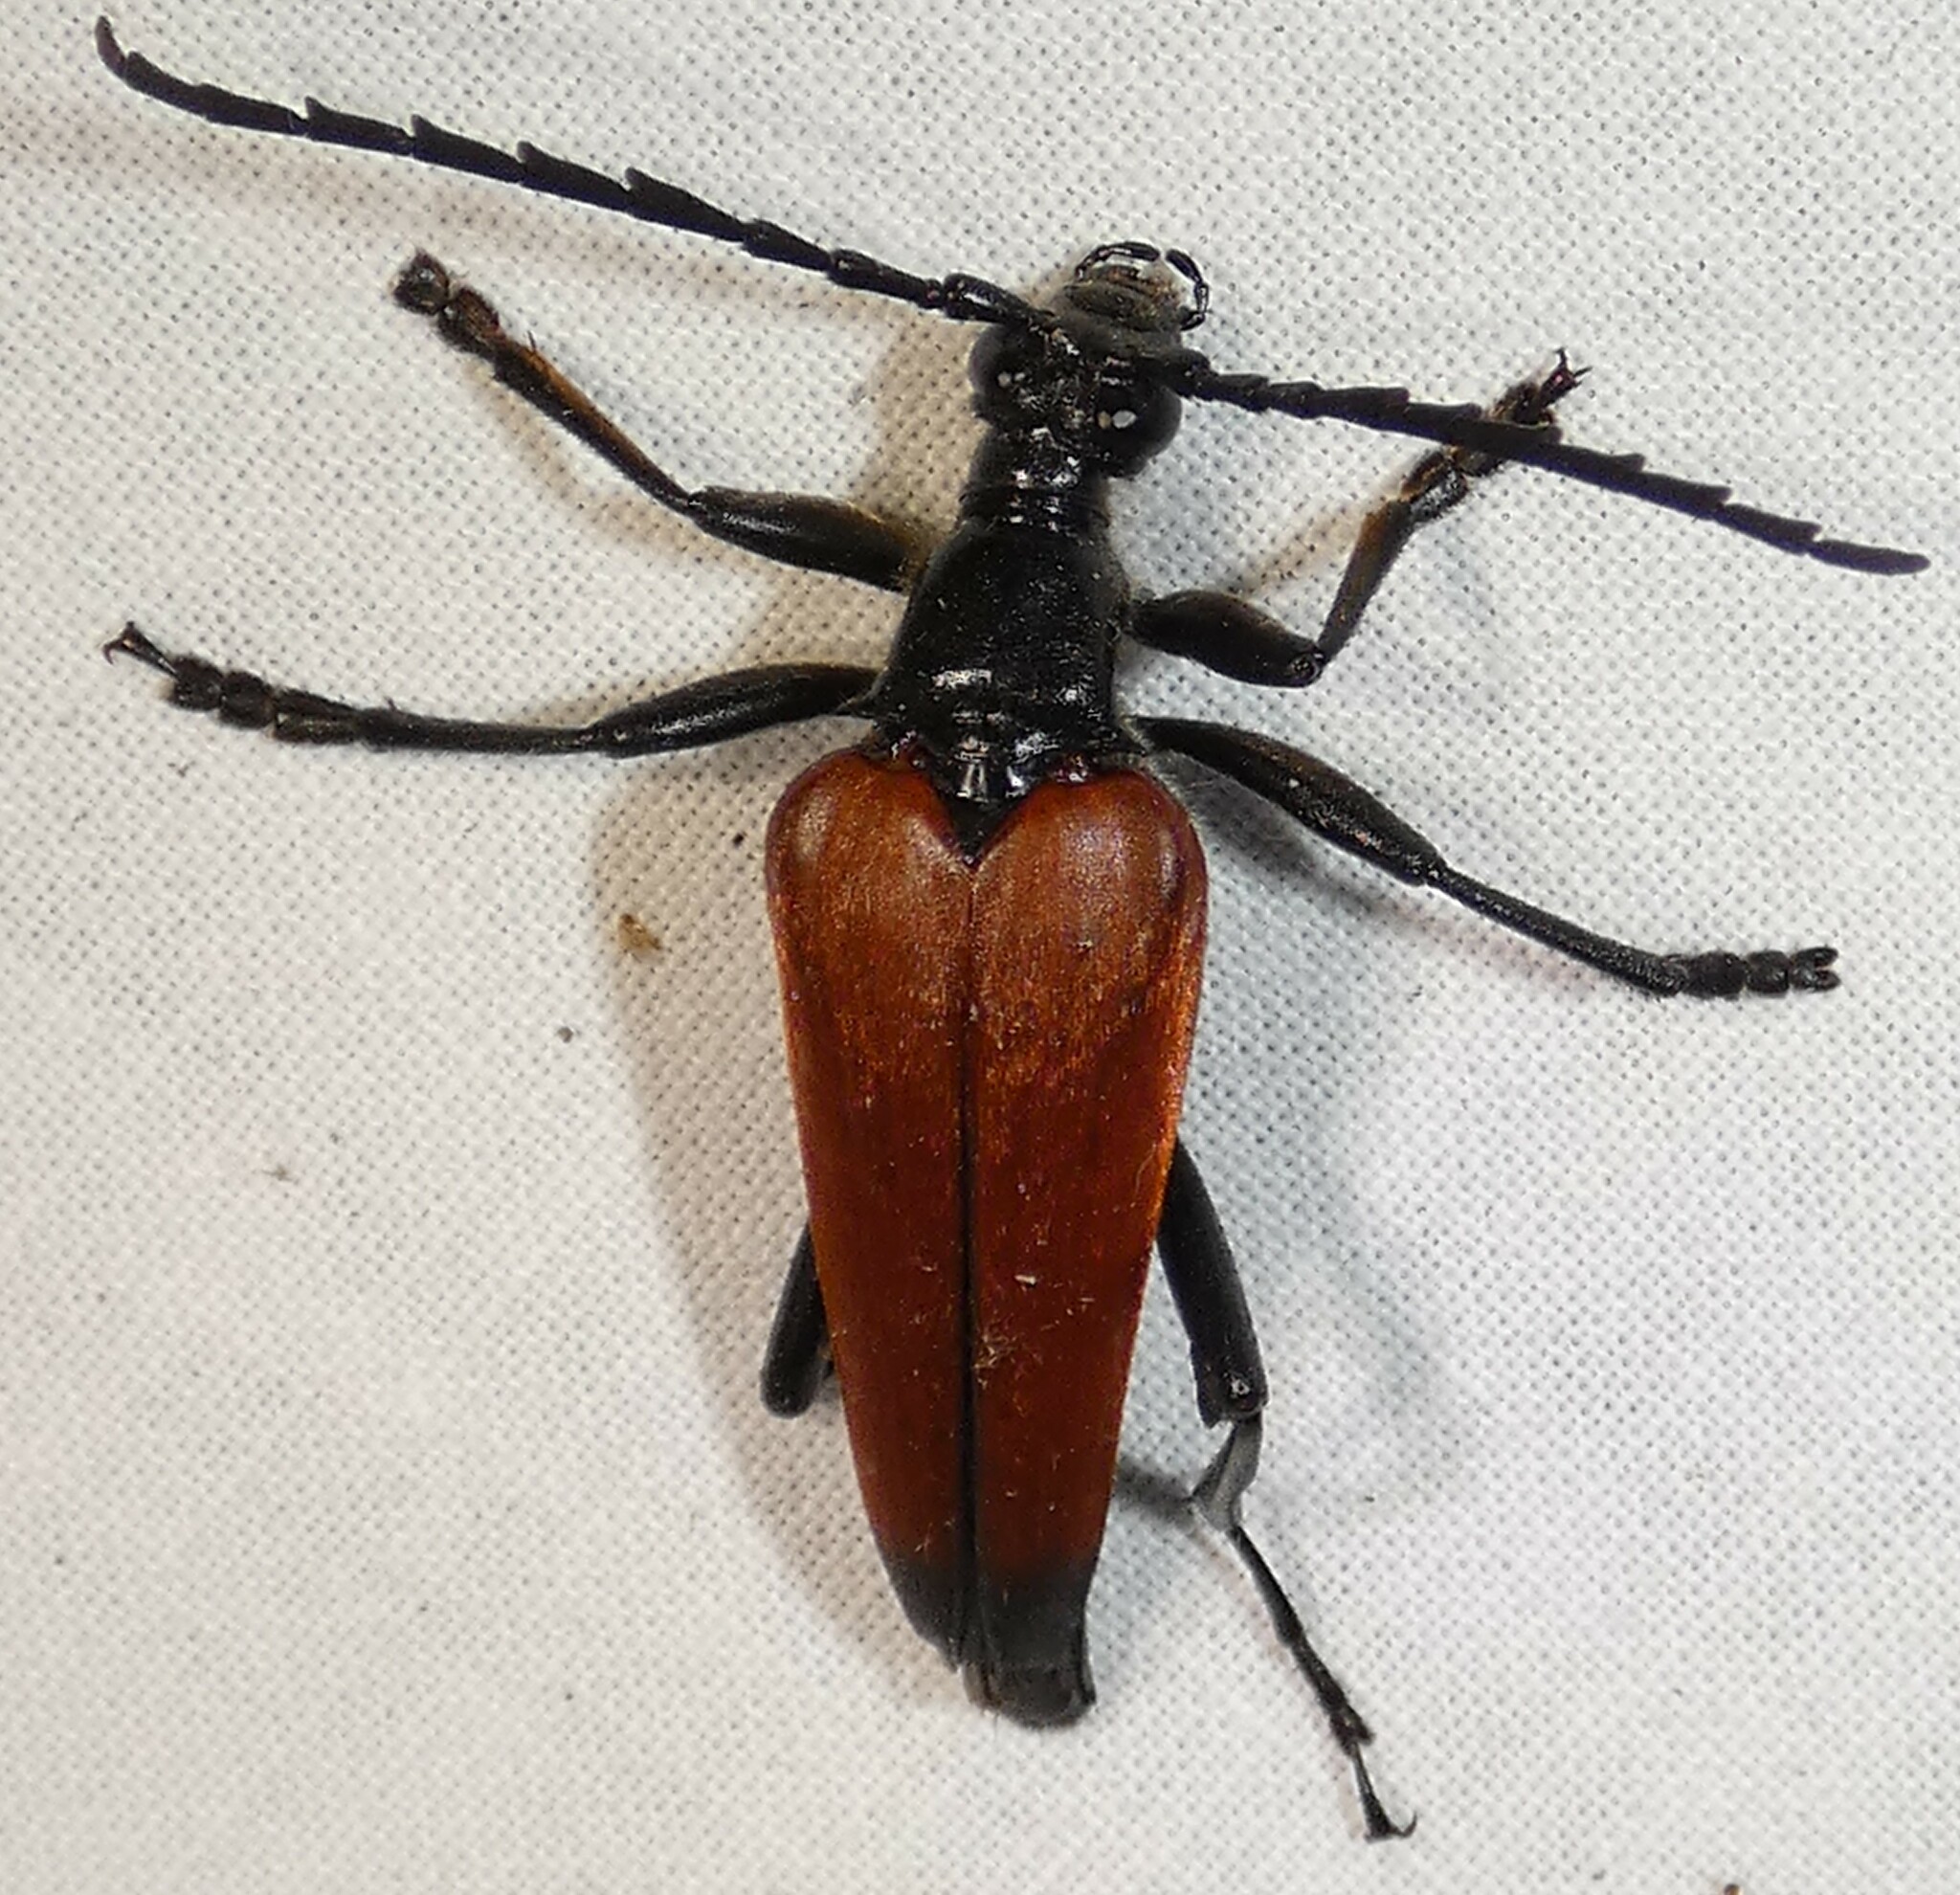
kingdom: Animalia
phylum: Arthropoda
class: Insecta
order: Coleoptera
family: Cerambycidae
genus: Stenelytrana
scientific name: Stenelytrana emarginata
